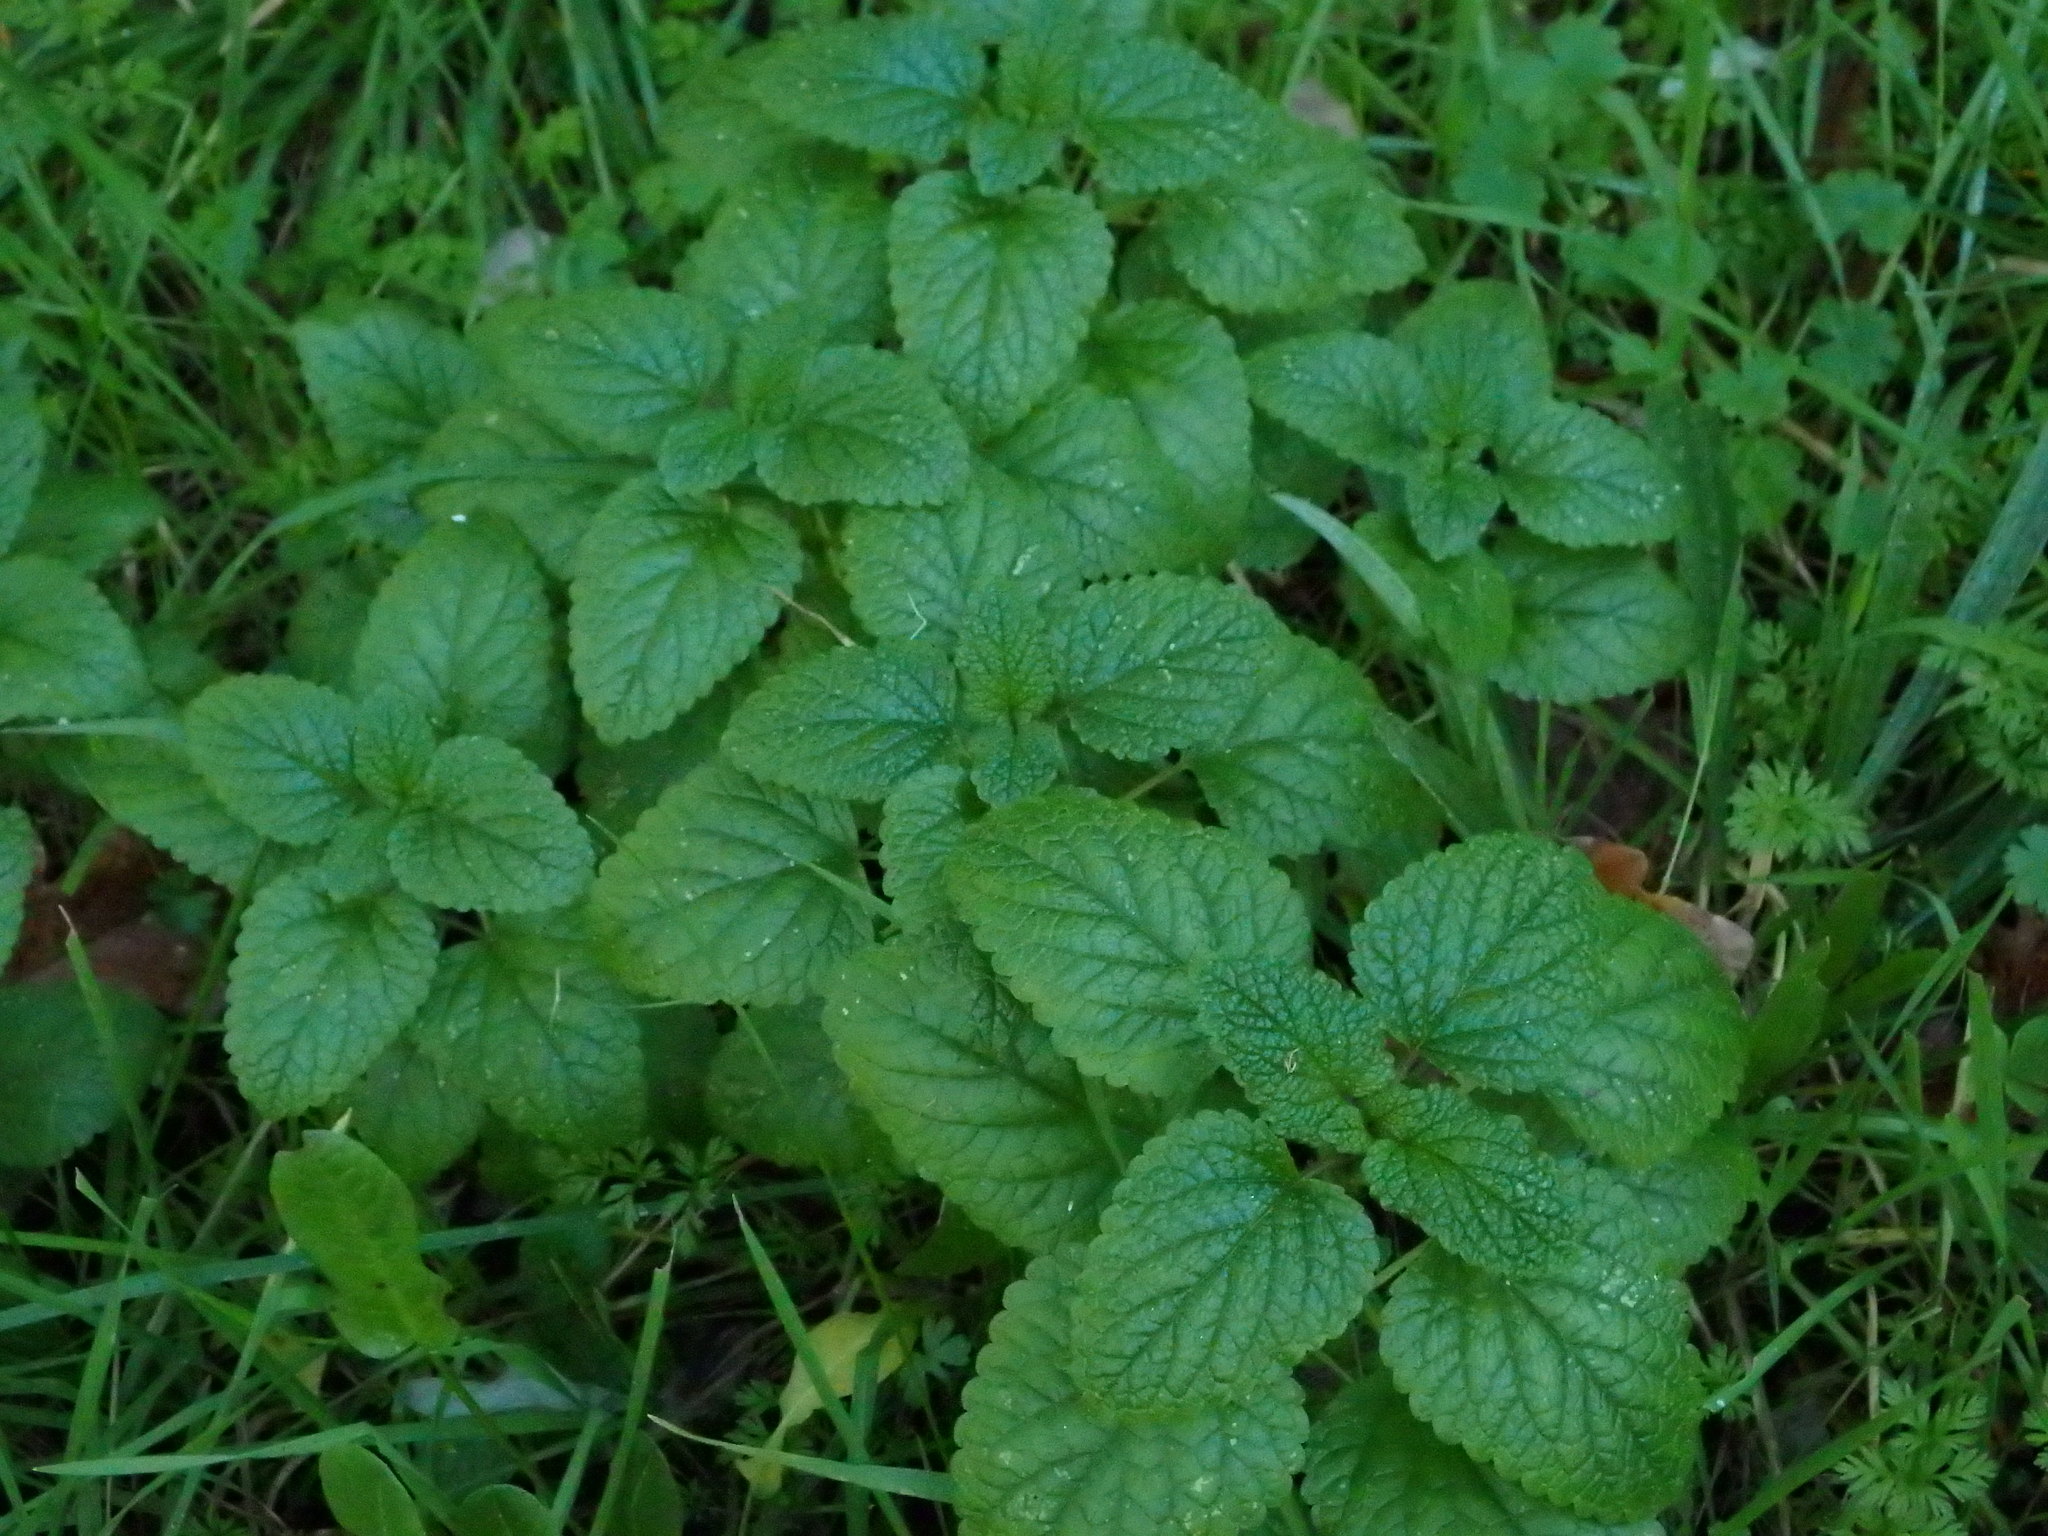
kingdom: Plantae
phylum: Tracheophyta
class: Magnoliopsida
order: Lamiales
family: Lamiaceae
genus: Melissa
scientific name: Melissa officinalis
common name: Balm
